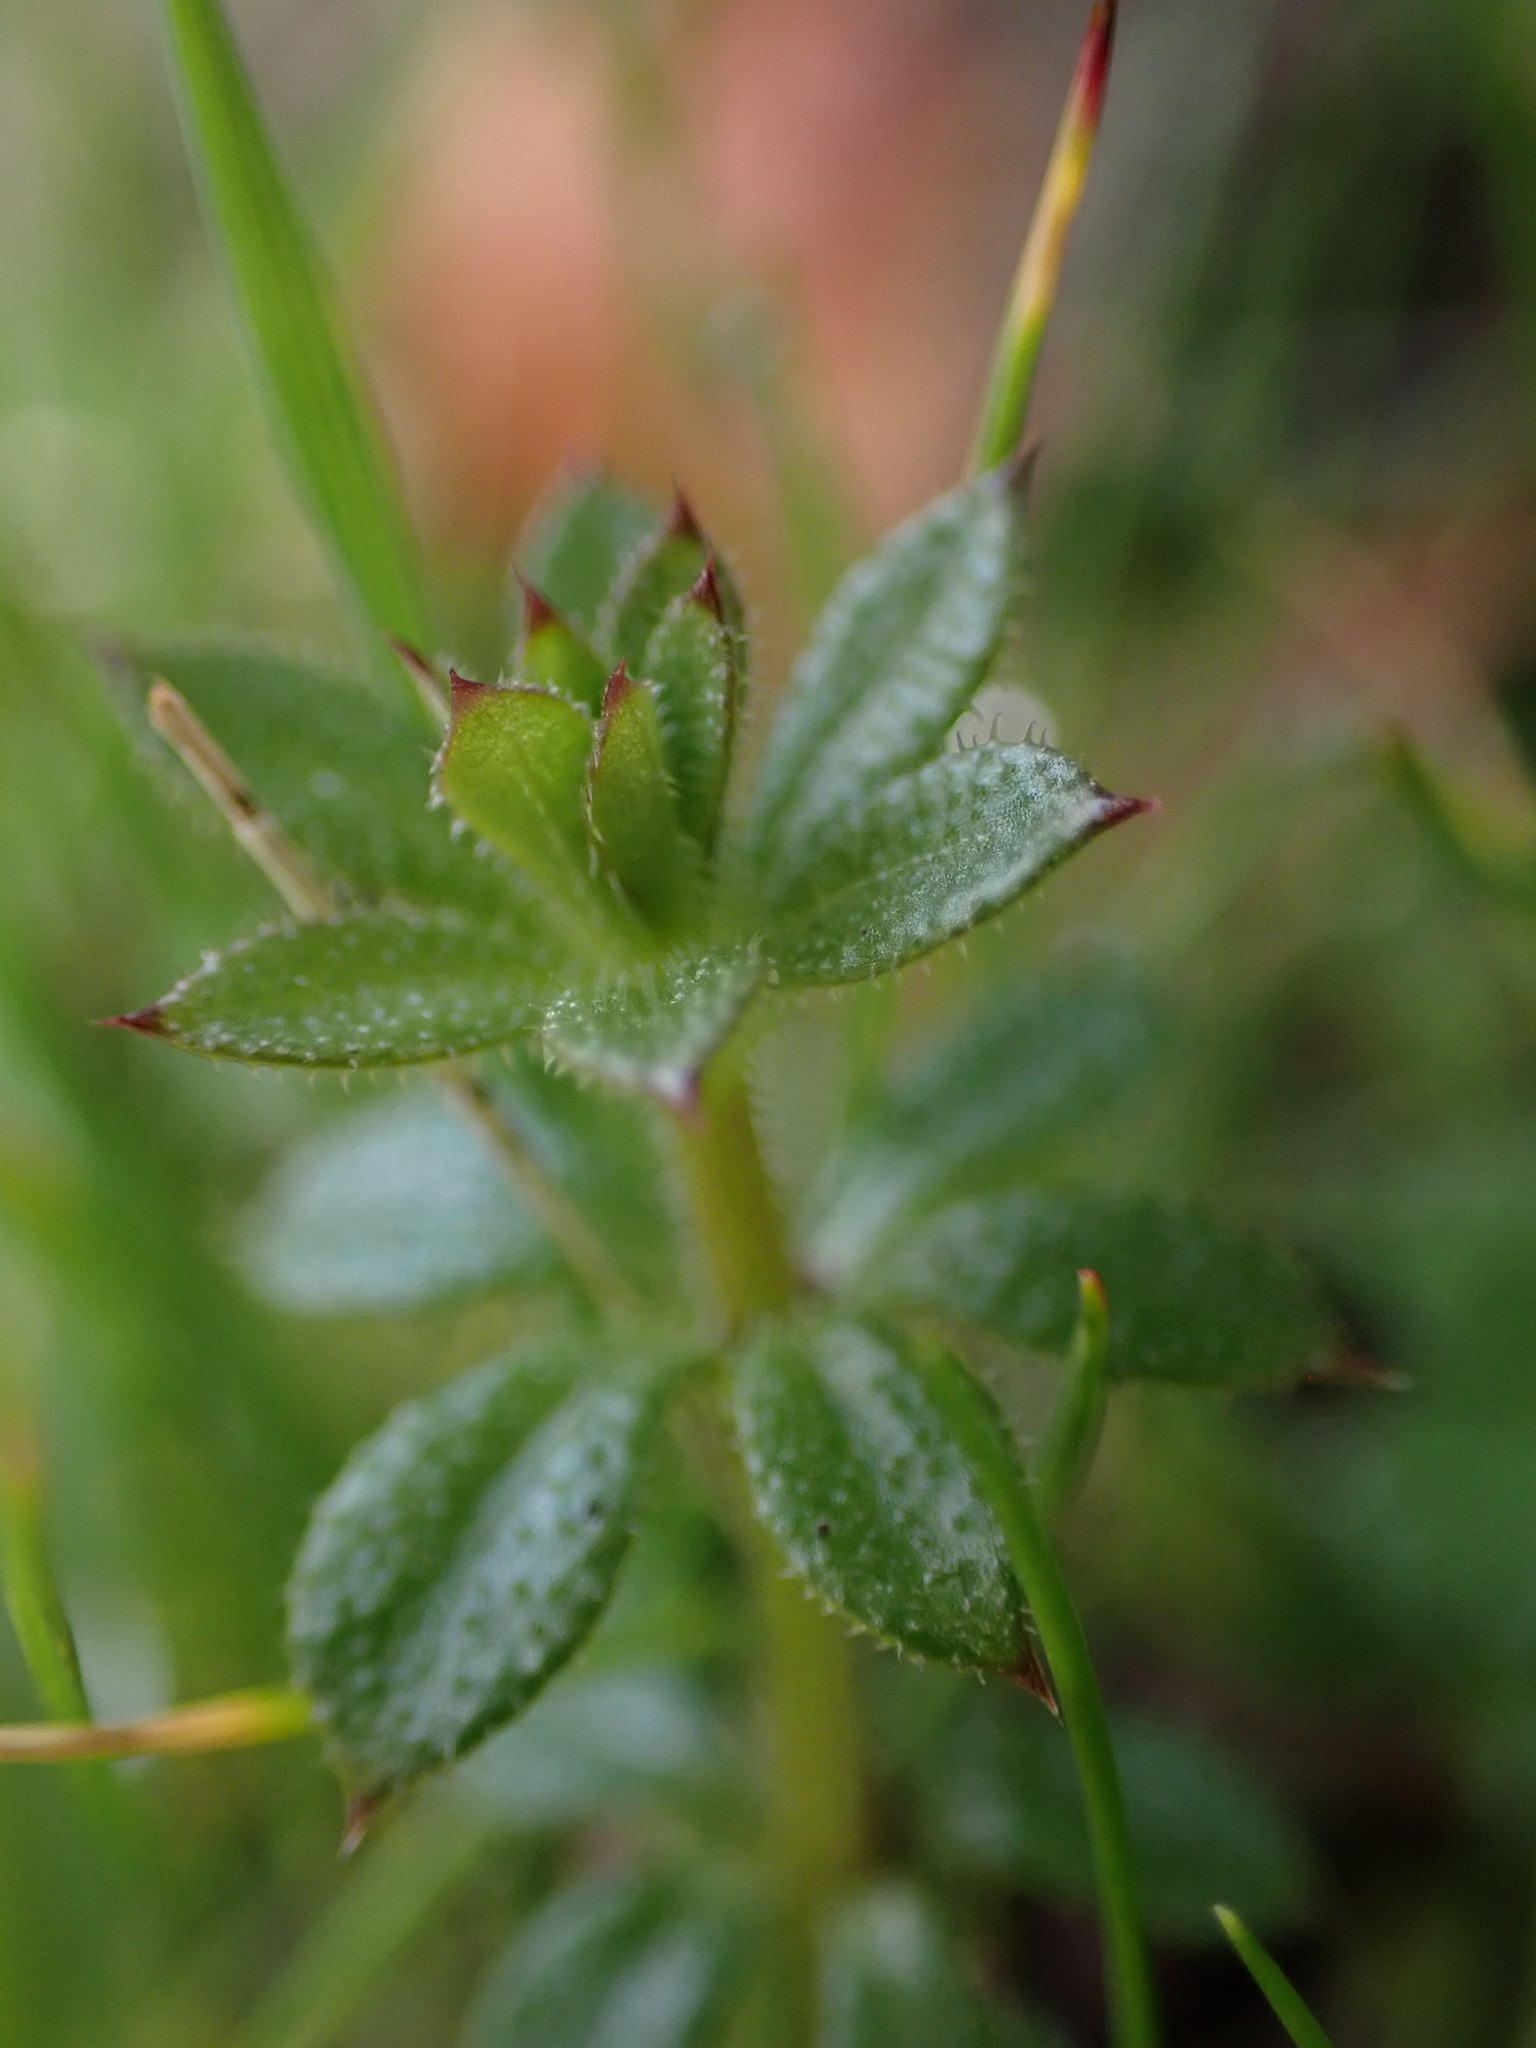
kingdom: Plantae
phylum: Tracheophyta
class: Magnoliopsida
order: Gentianales
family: Rubiaceae
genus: Galium
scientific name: Galium aparine
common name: Cleavers
